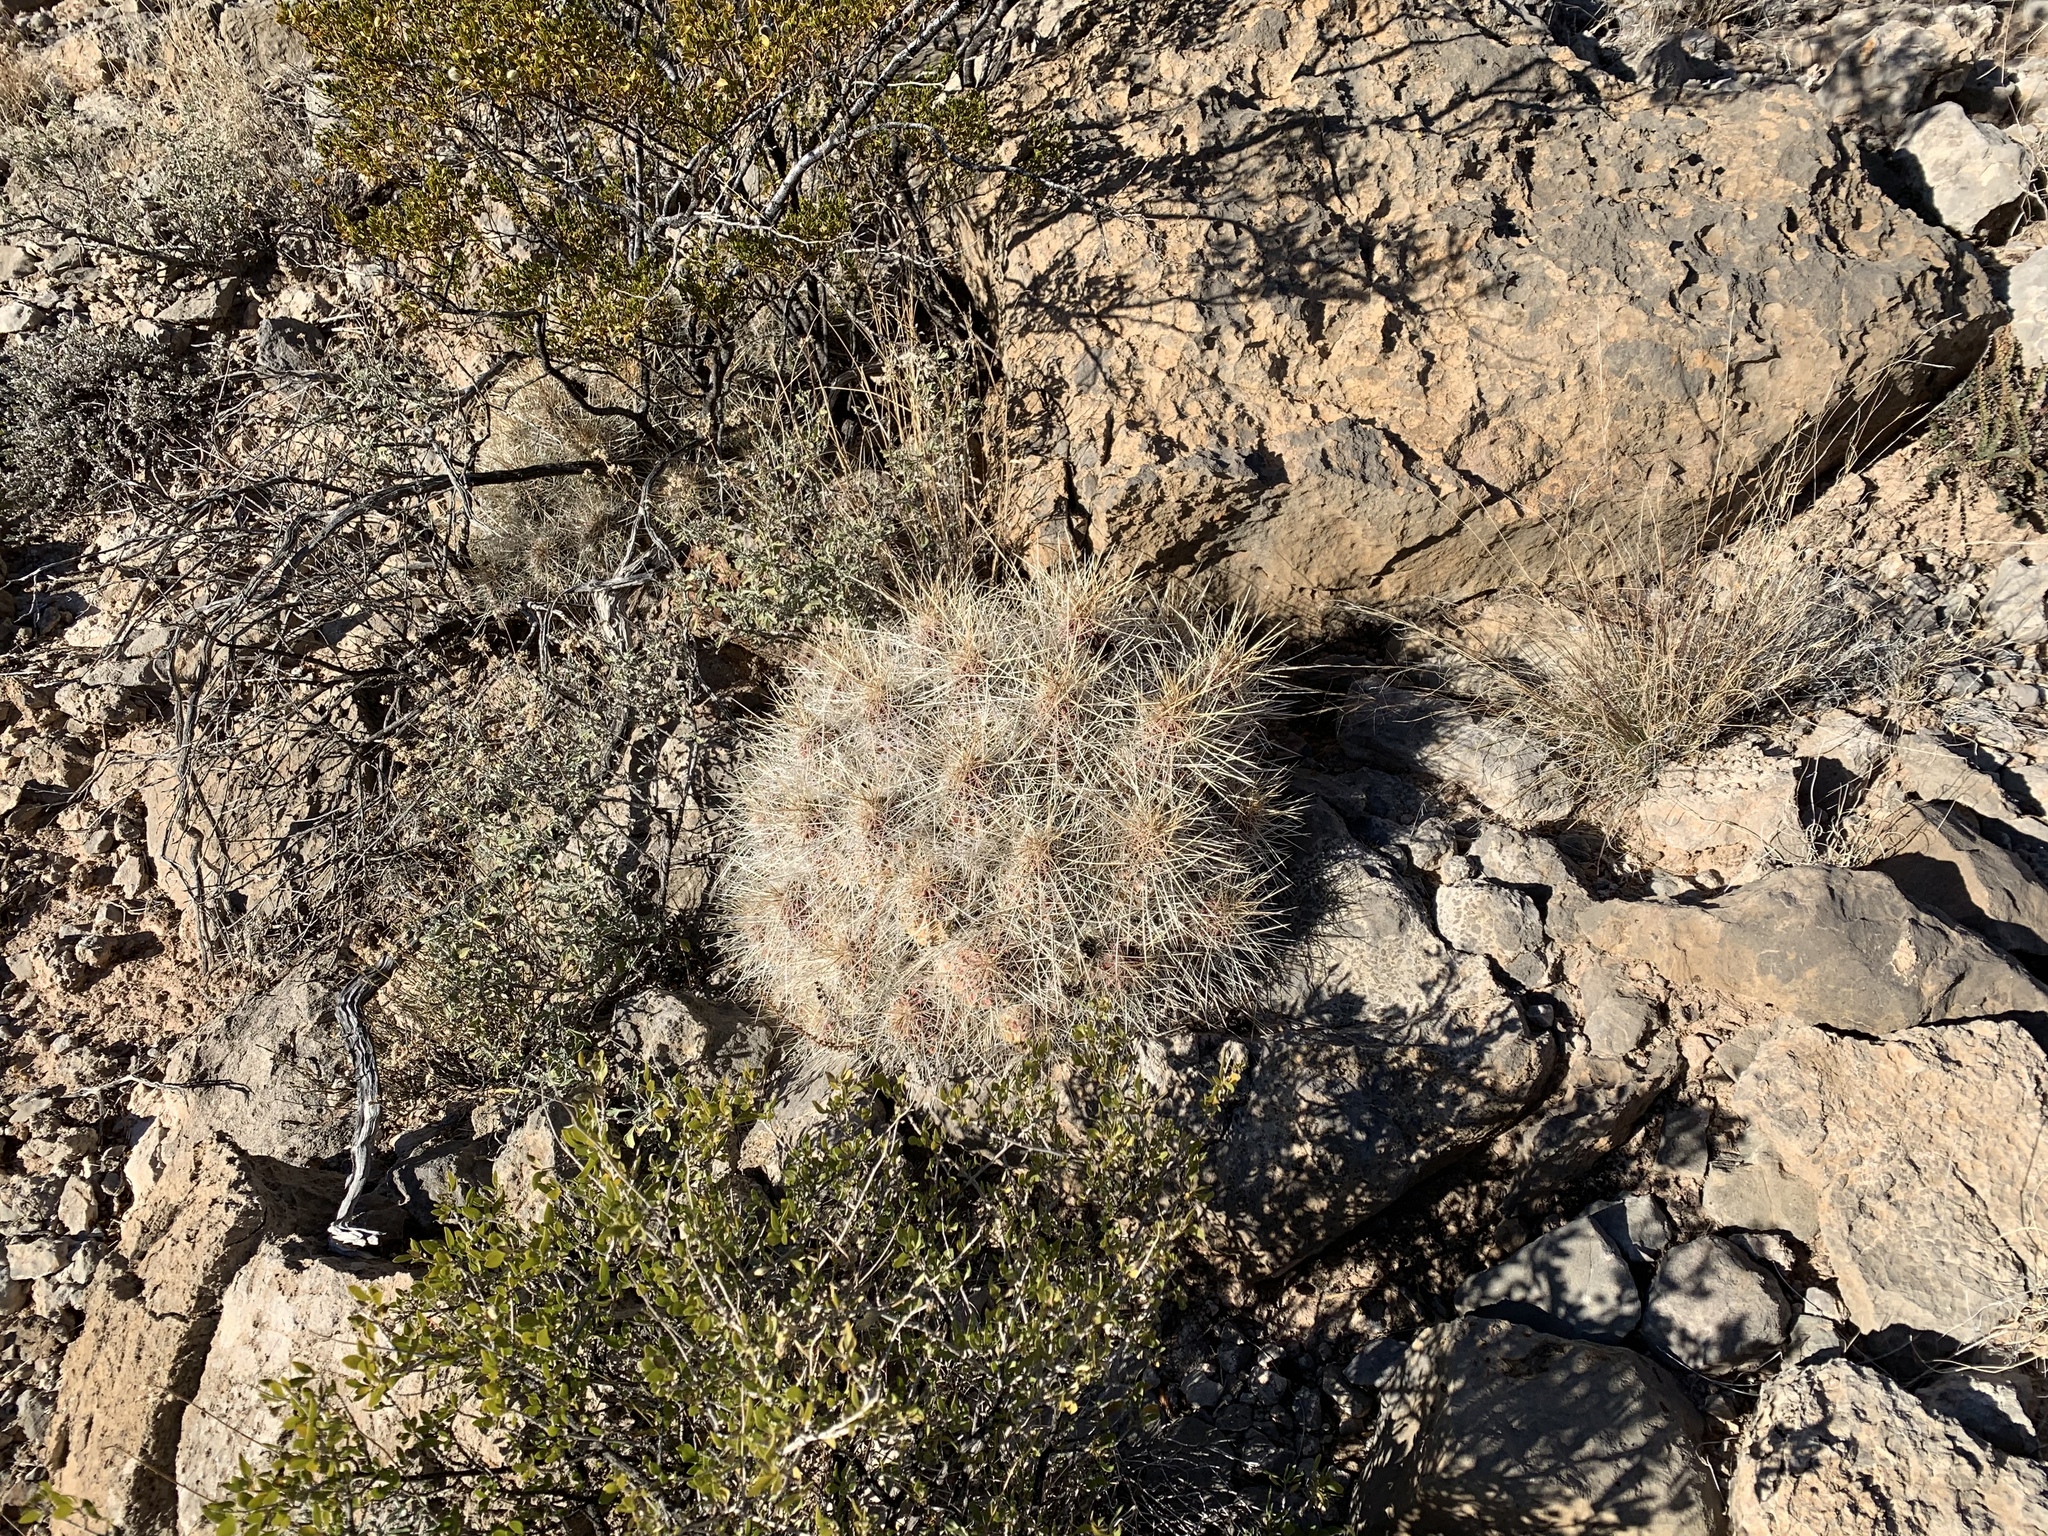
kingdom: Plantae
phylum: Tracheophyta
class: Magnoliopsida
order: Caryophyllales
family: Cactaceae
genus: Echinocereus
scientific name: Echinocereus stramineus
